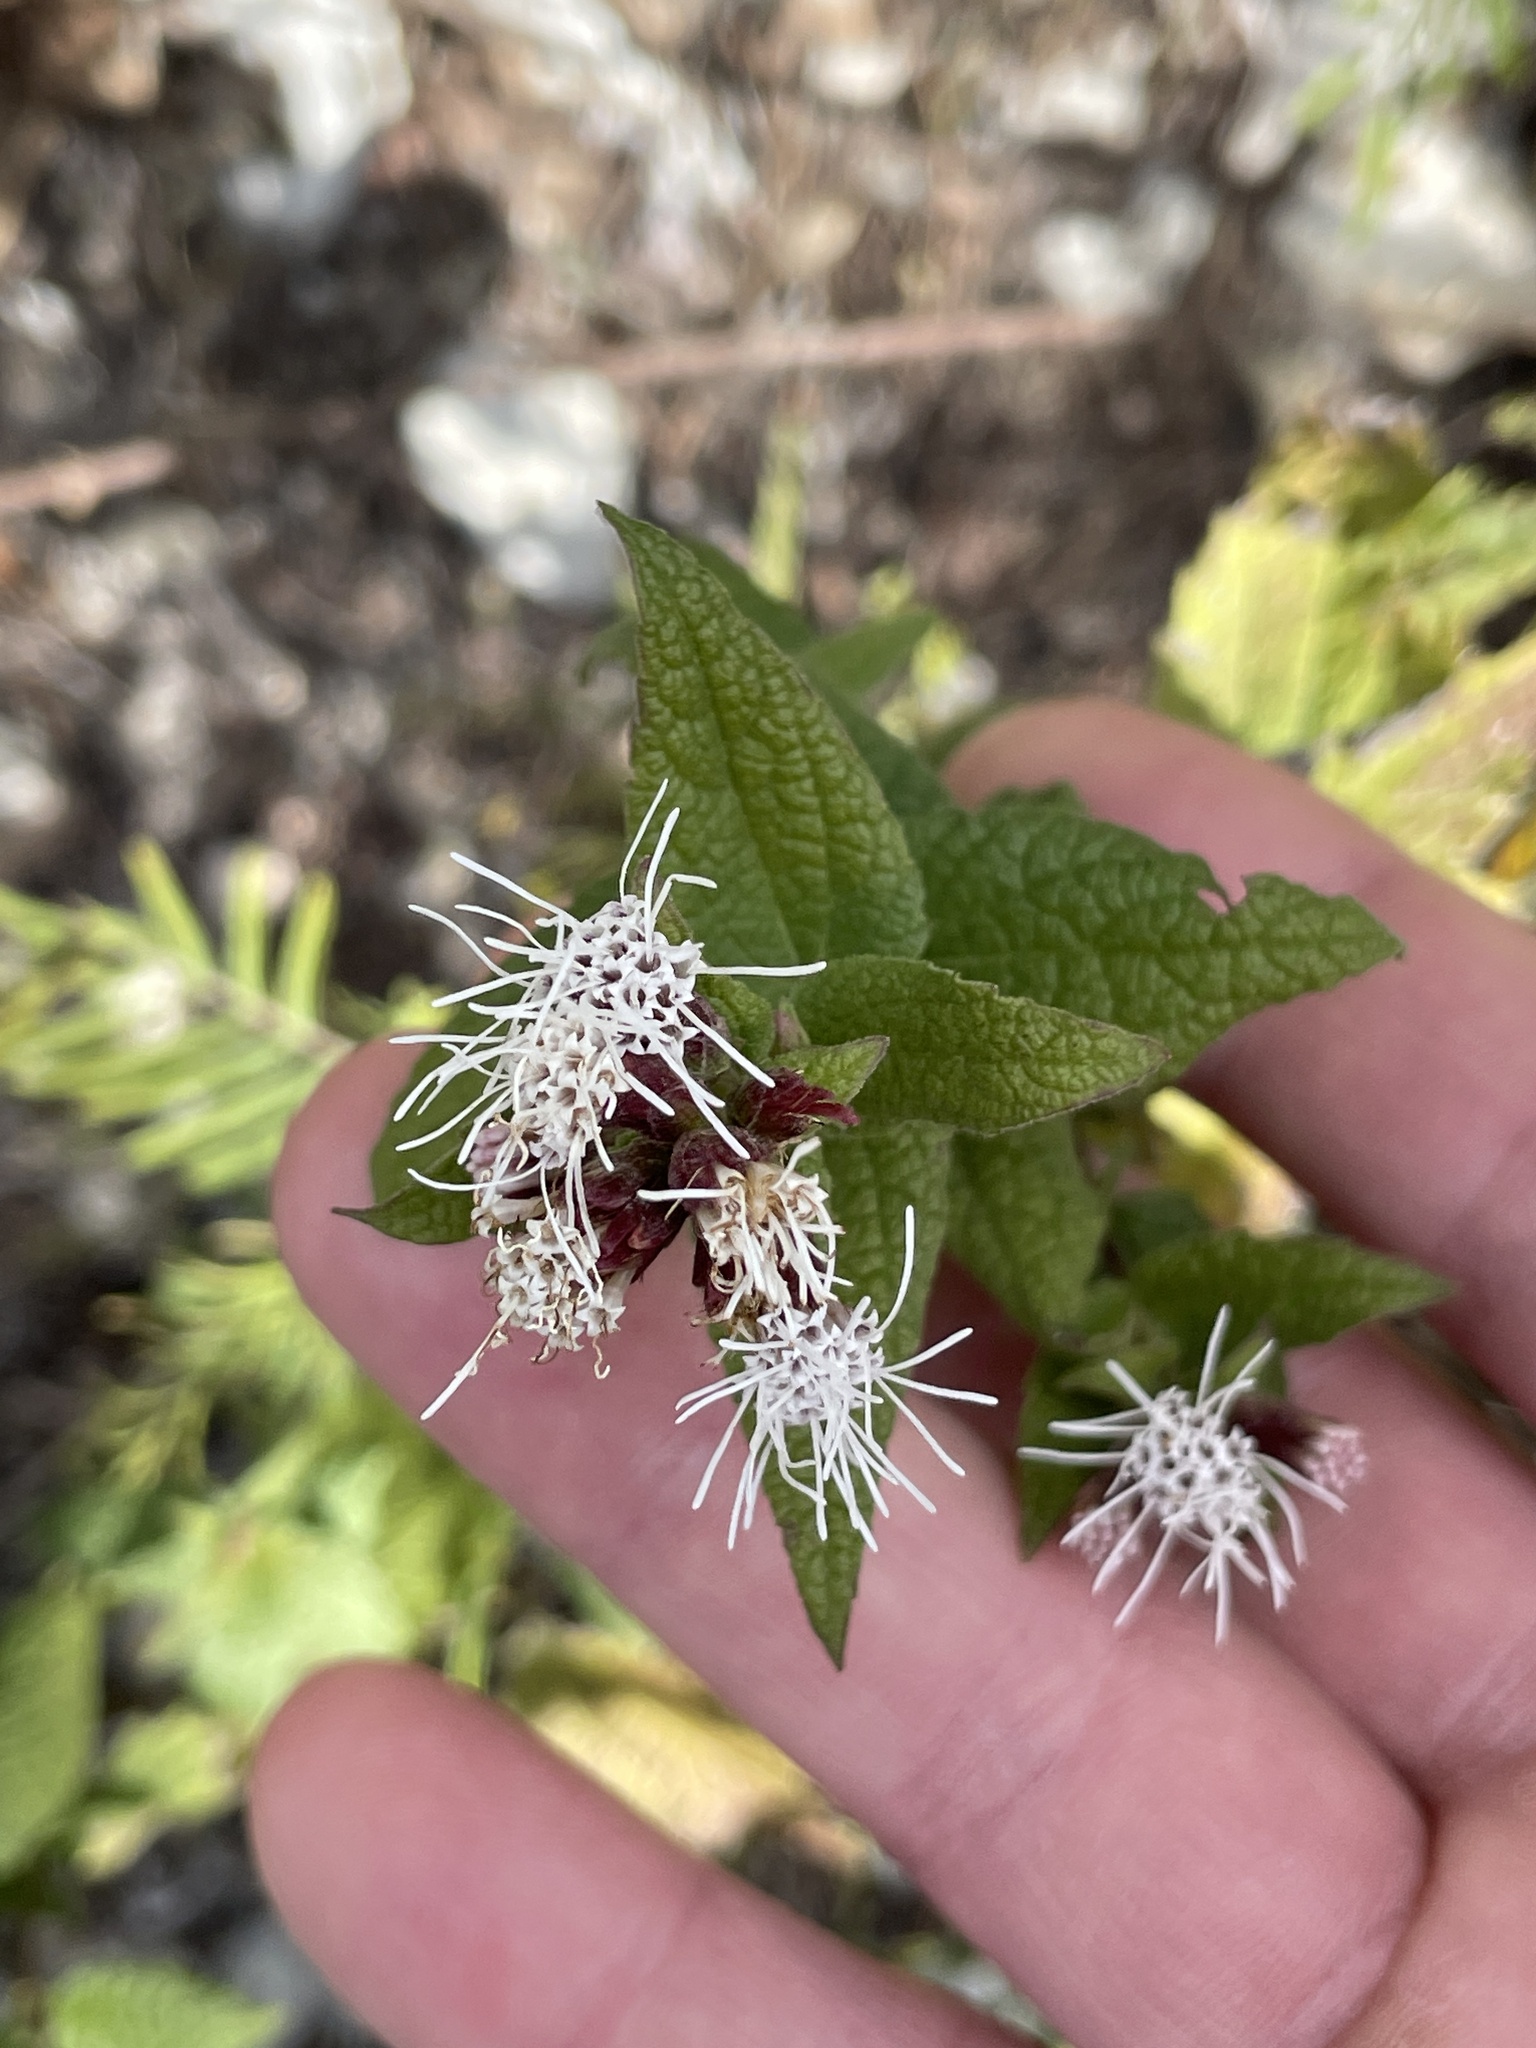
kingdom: Plantae
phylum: Tracheophyta
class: Magnoliopsida
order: Asterales
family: Asteraceae
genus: Chromolaena
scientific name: Chromolaena bigelovii
